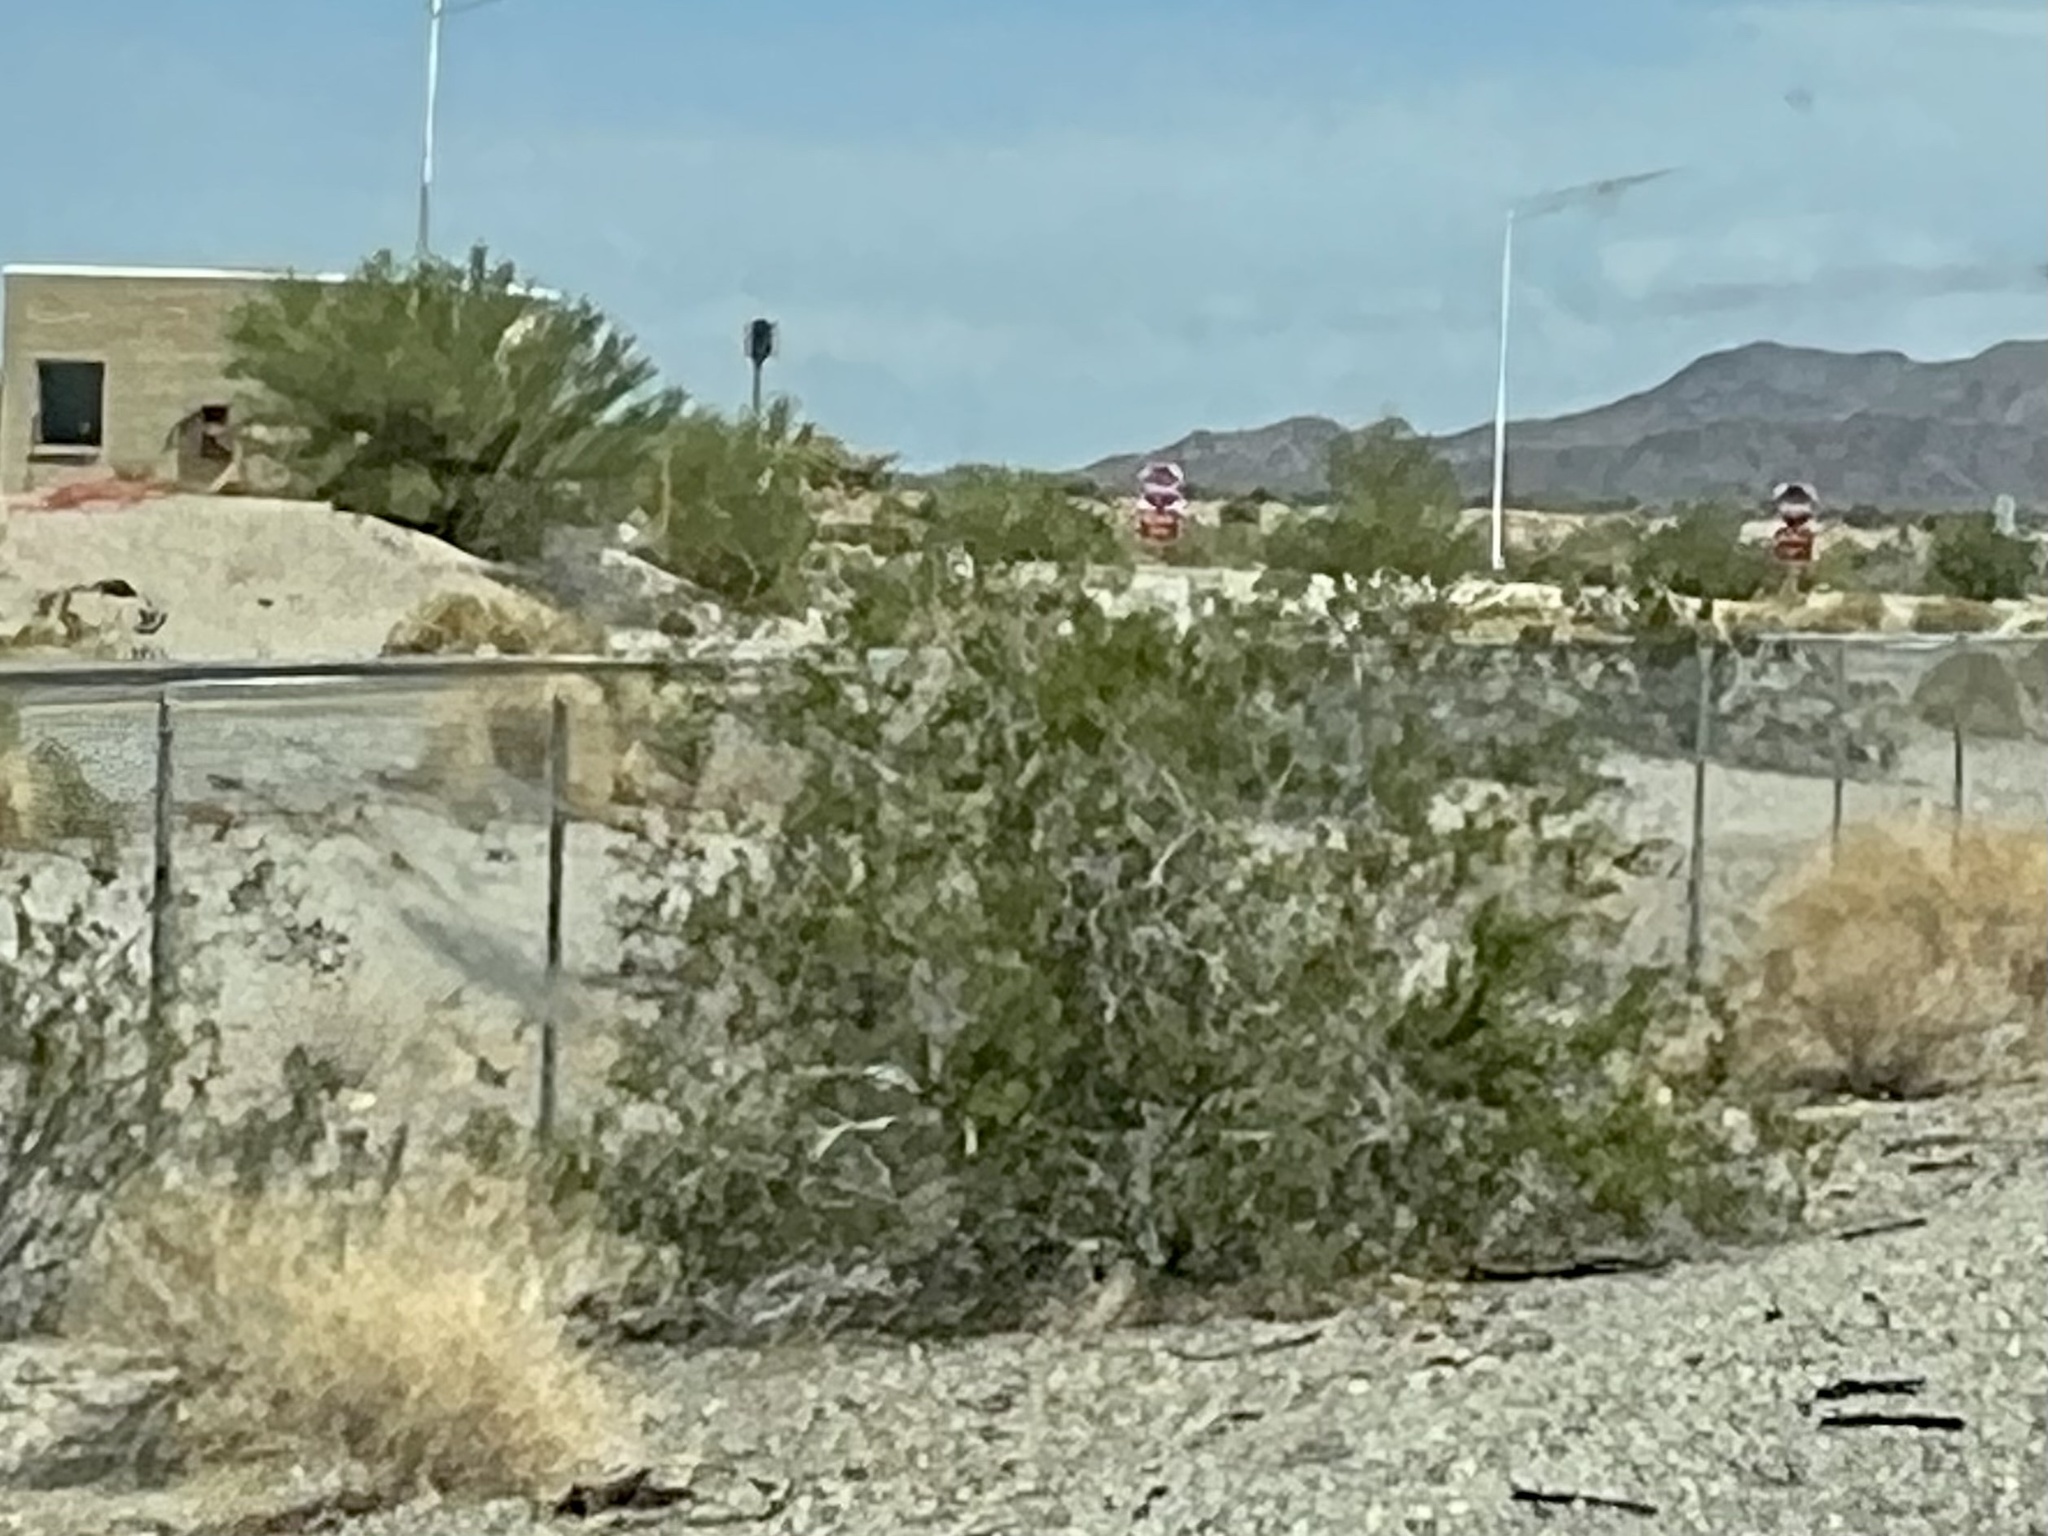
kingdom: Plantae
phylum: Tracheophyta
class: Magnoliopsida
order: Zygophyllales
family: Zygophyllaceae
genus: Larrea
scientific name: Larrea tridentata
